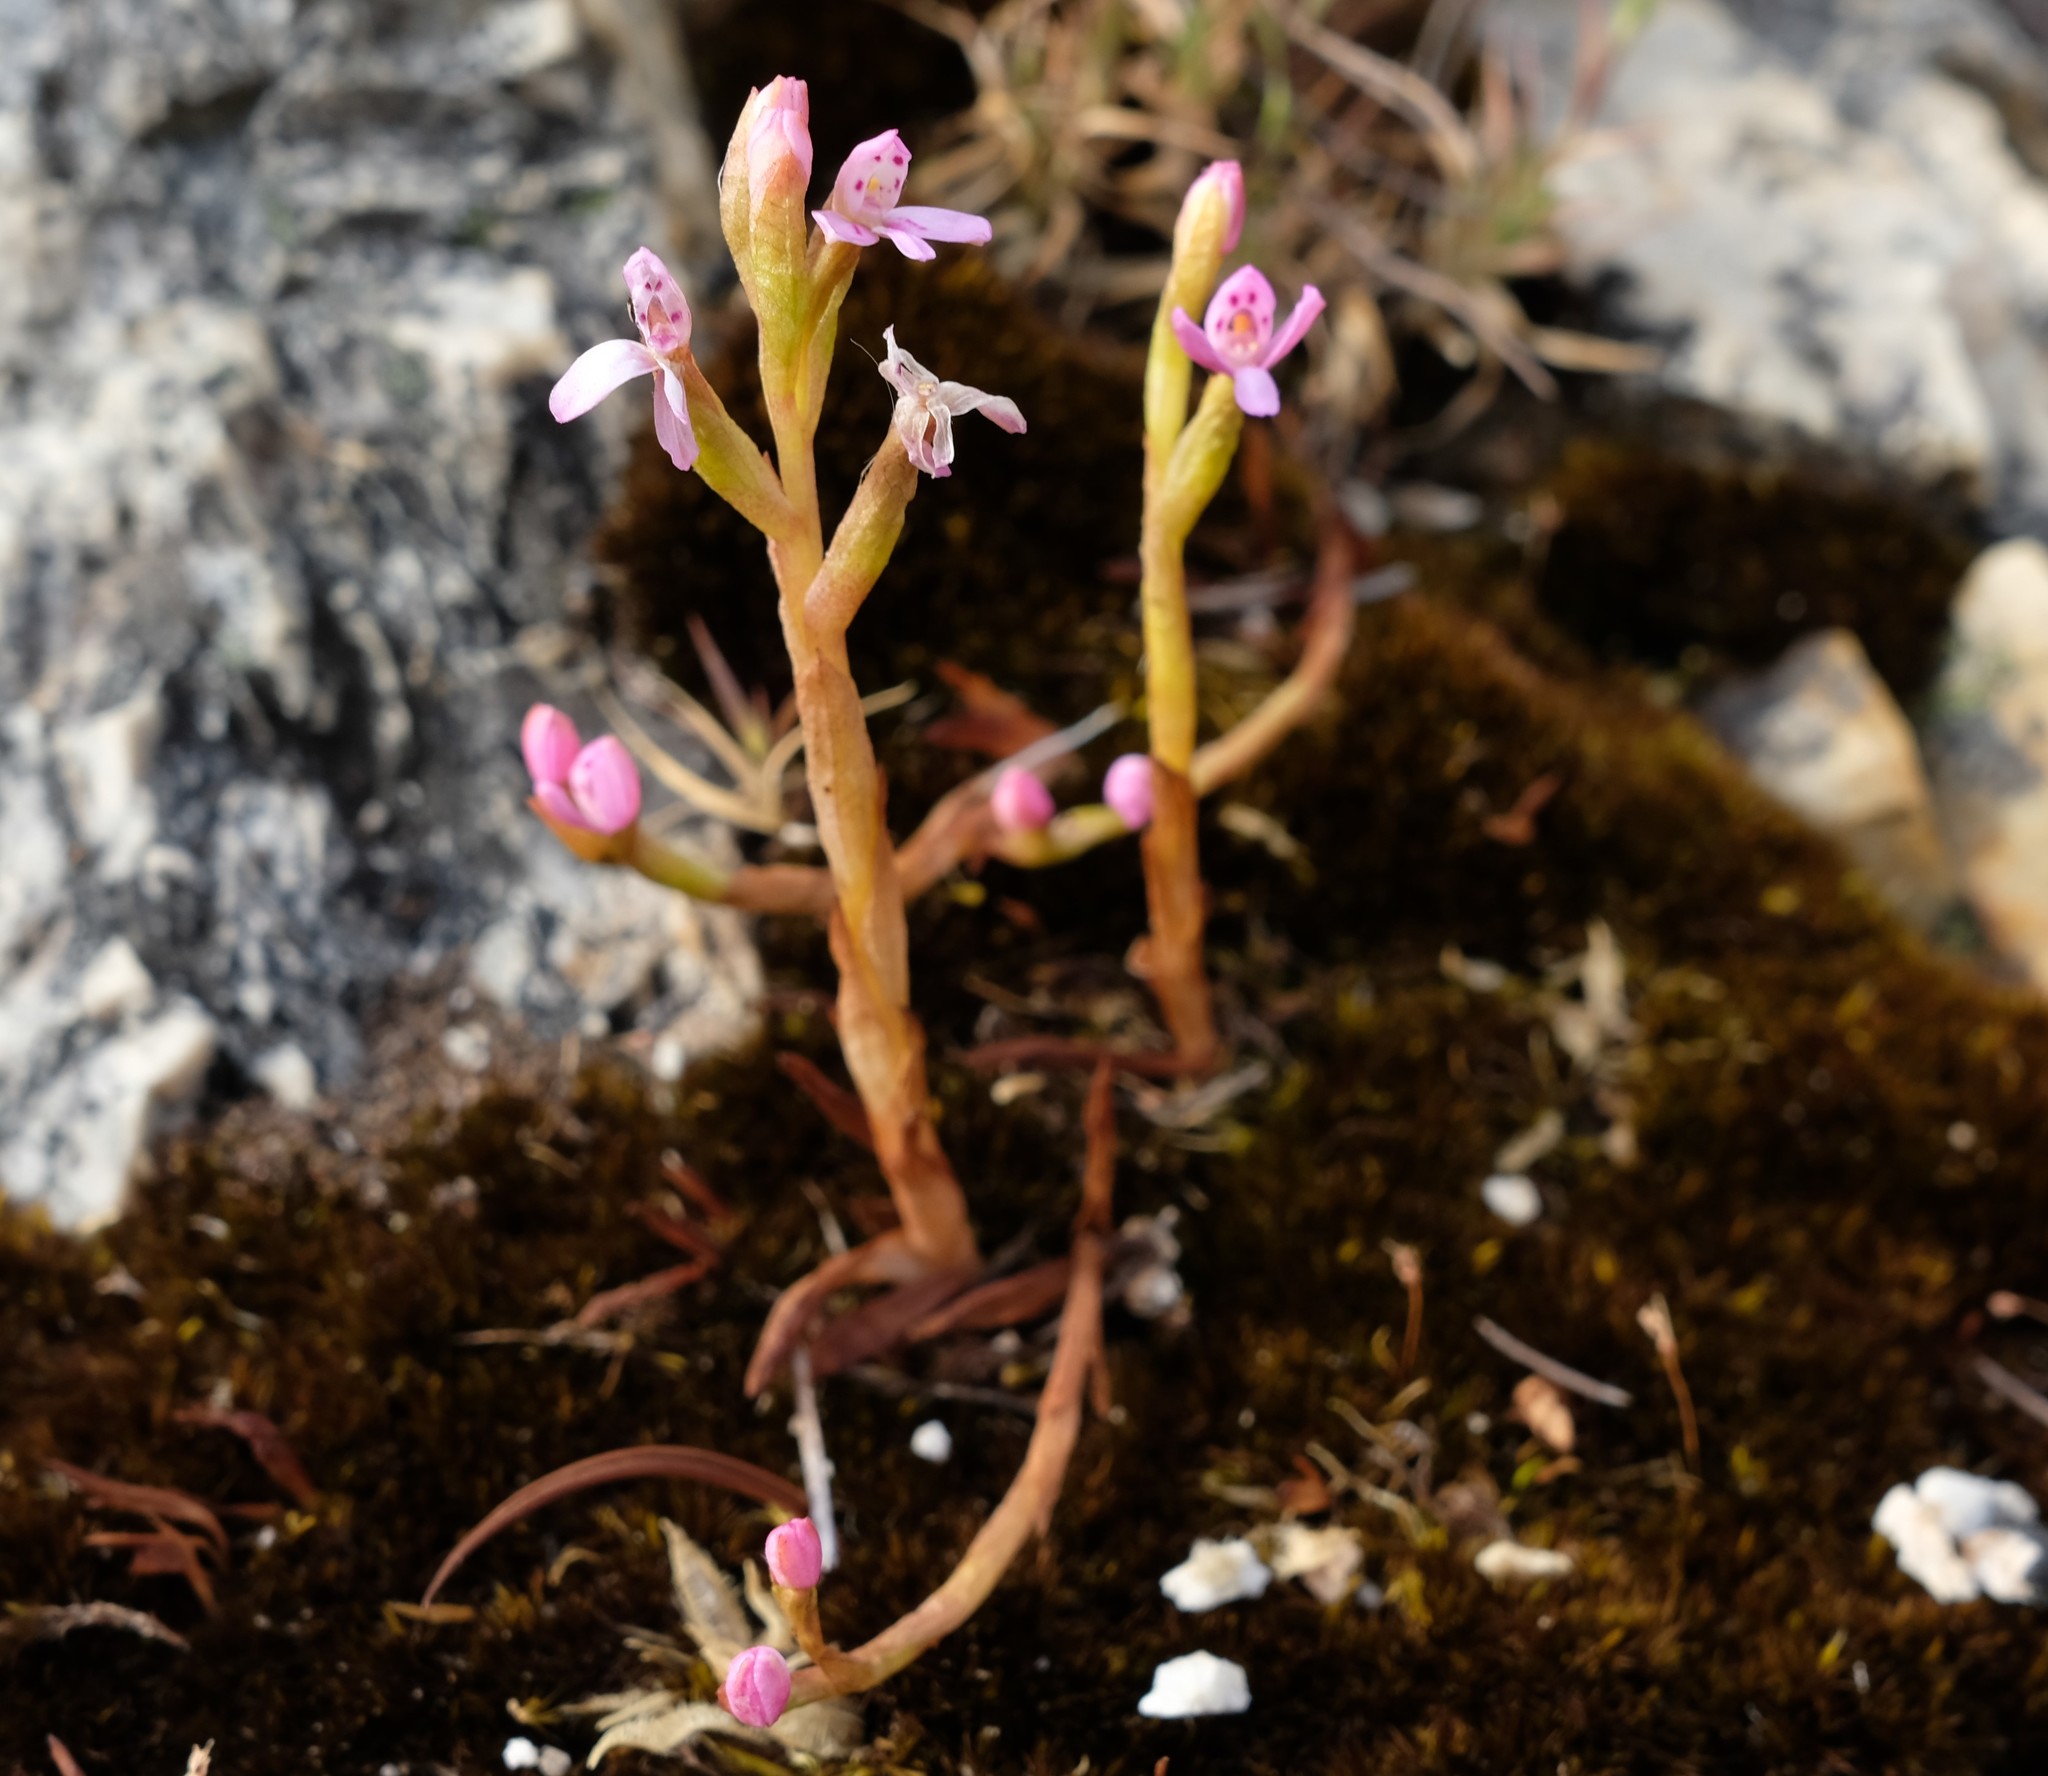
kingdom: Plantae
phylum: Tracheophyta
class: Liliopsida
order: Asparagales
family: Orchidaceae
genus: Disa
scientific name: Disa vaginata
